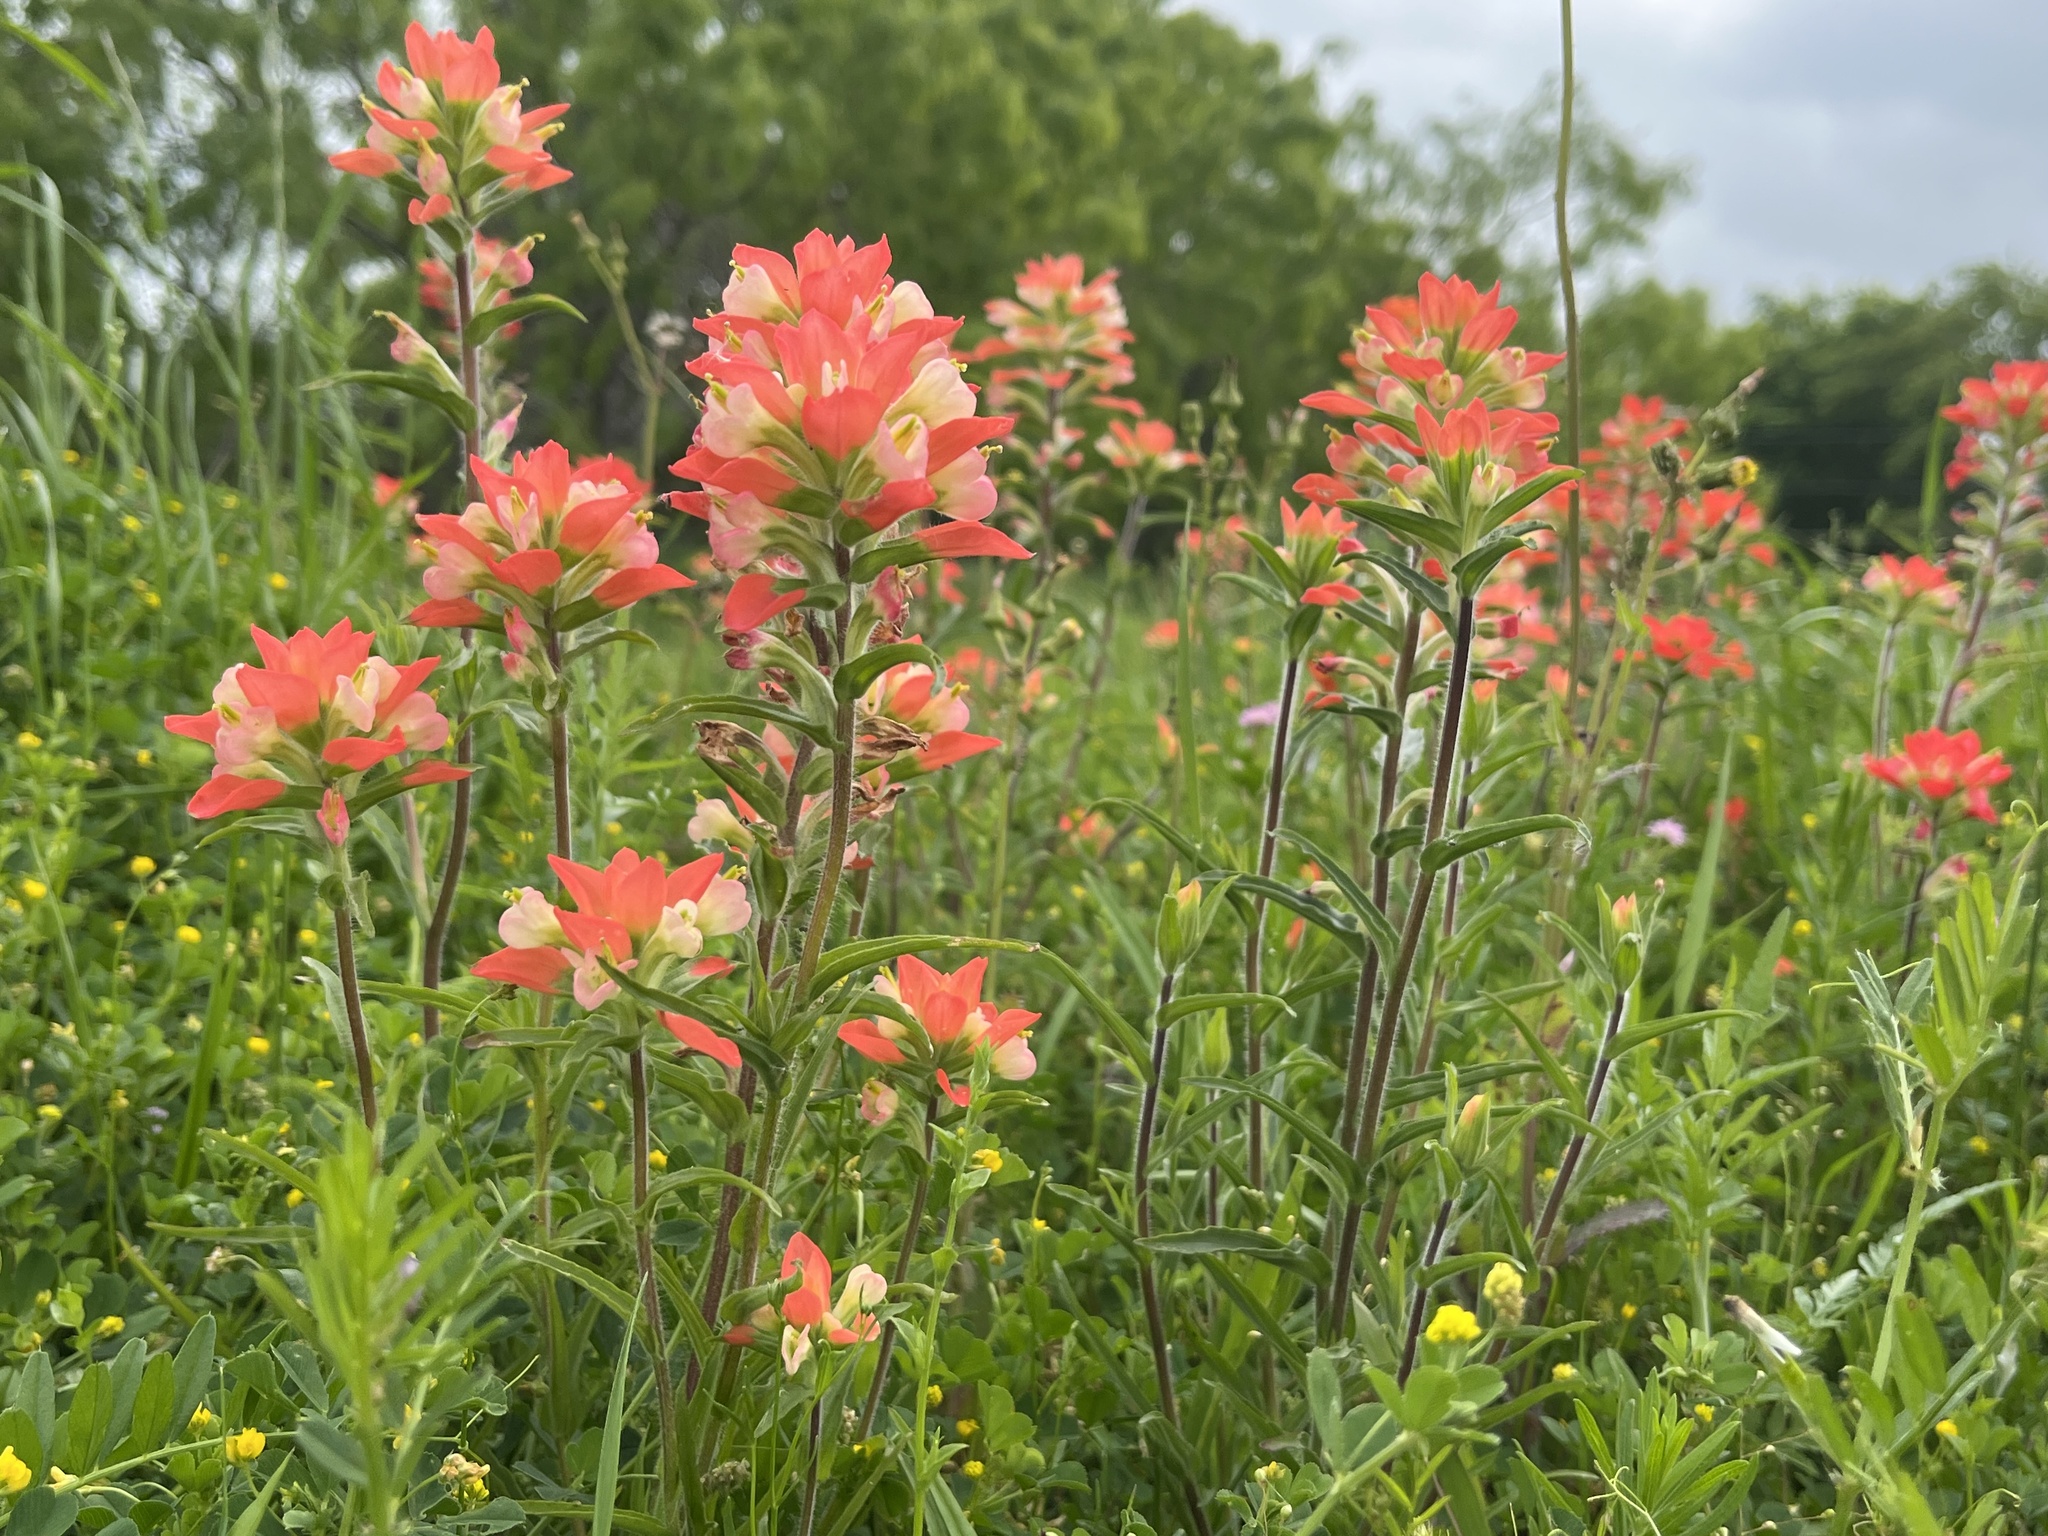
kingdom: Plantae
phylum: Tracheophyta
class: Magnoliopsida
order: Lamiales
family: Orobanchaceae
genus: Castilleja
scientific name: Castilleja indivisa
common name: Texas paintbrush
